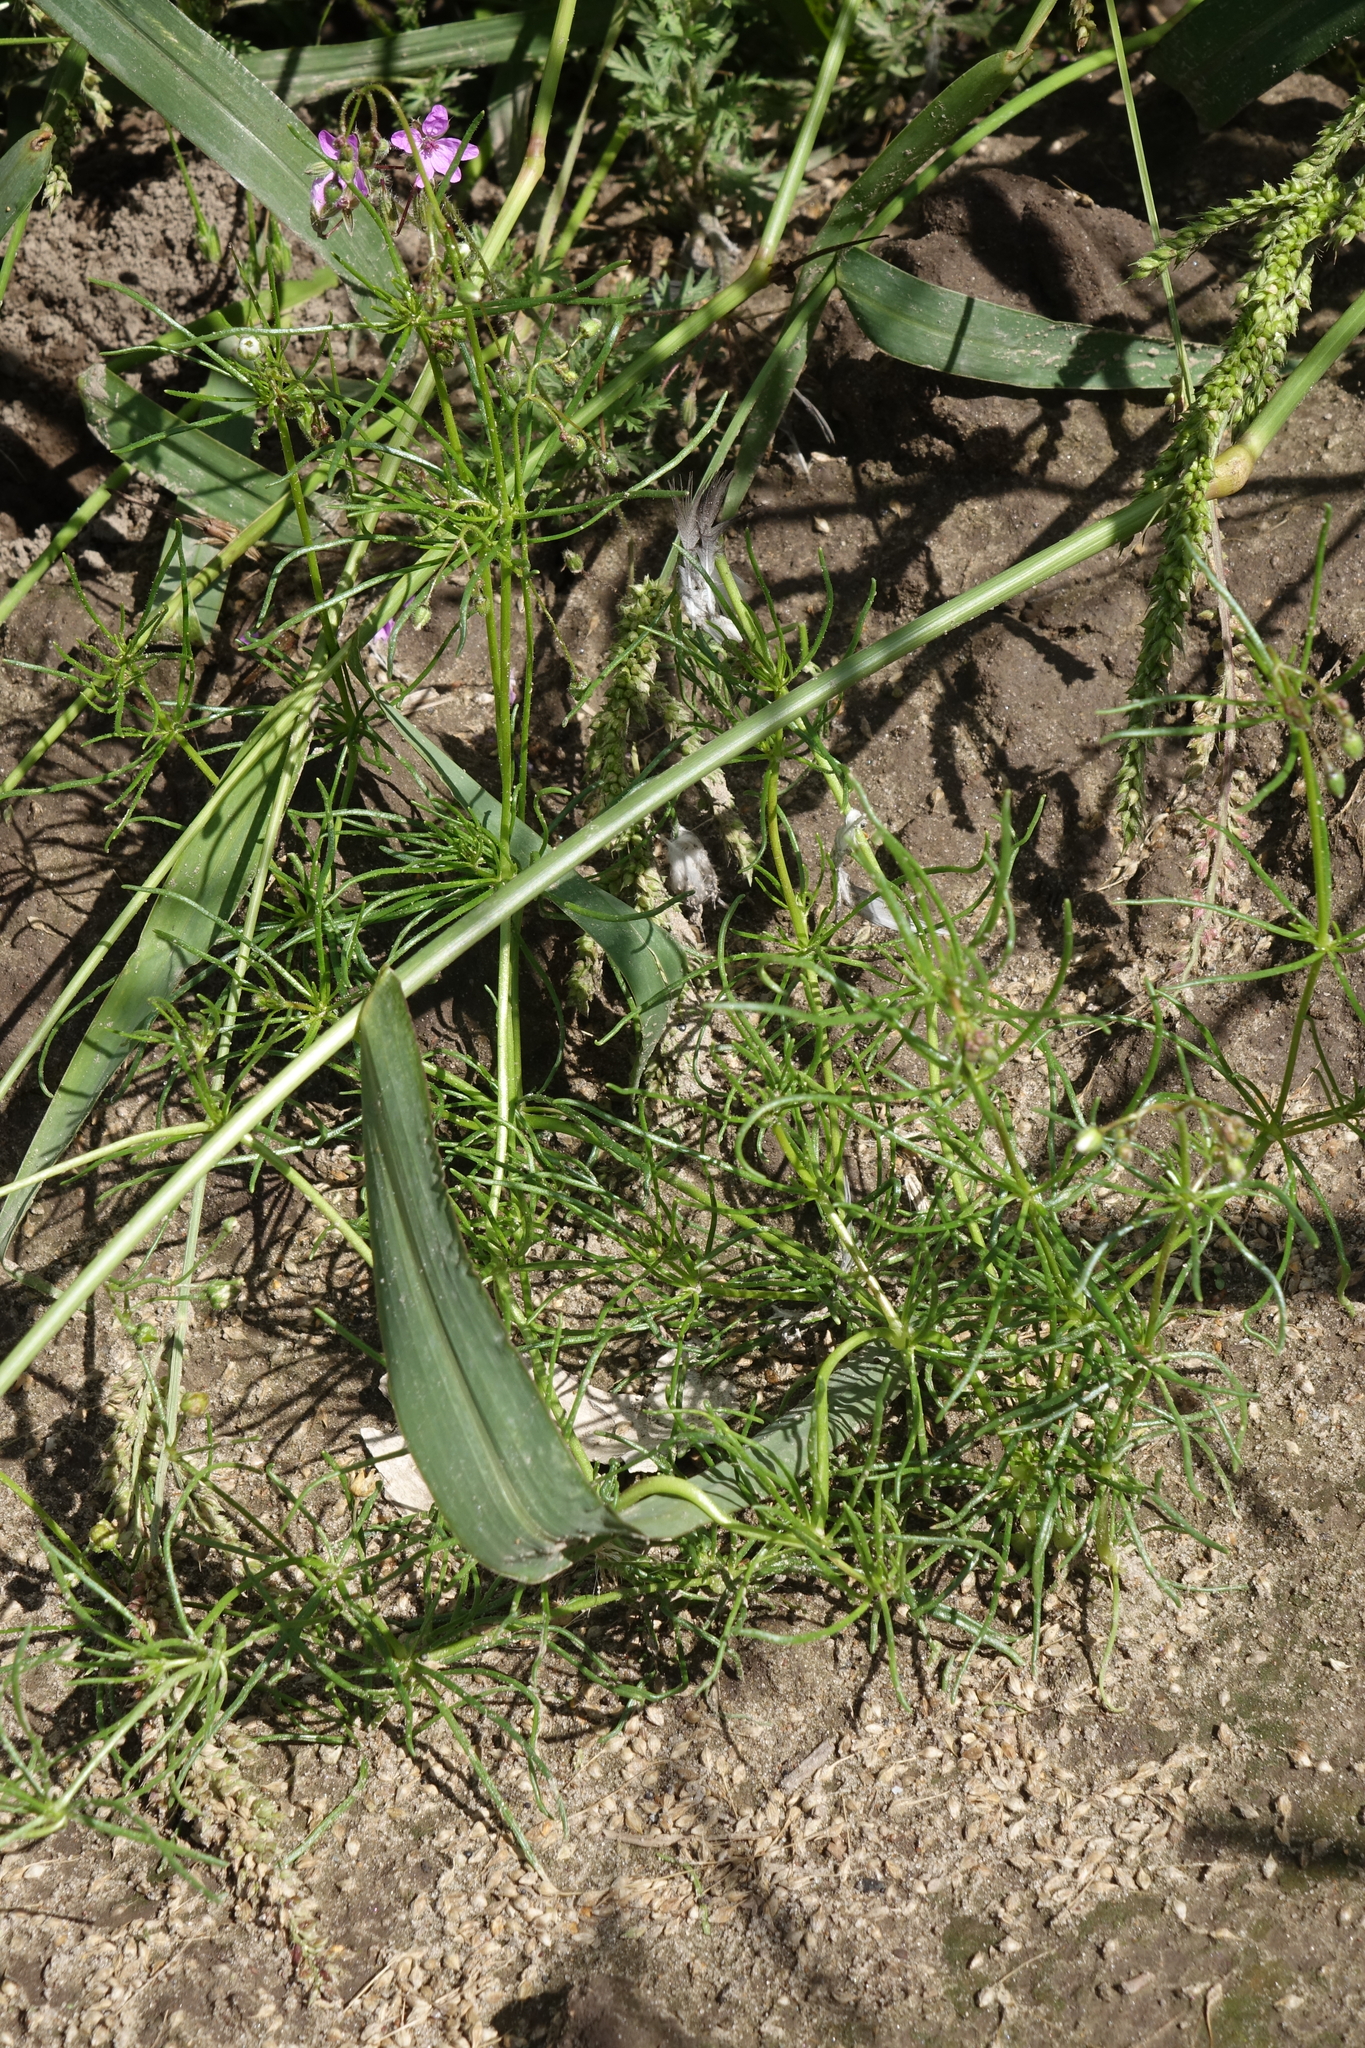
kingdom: Plantae
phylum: Tracheophyta
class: Magnoliopsida
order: Caryophyllales
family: Caryophyllaceae
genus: Spergula
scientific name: Spergula arvensis
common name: Corn spurrey
